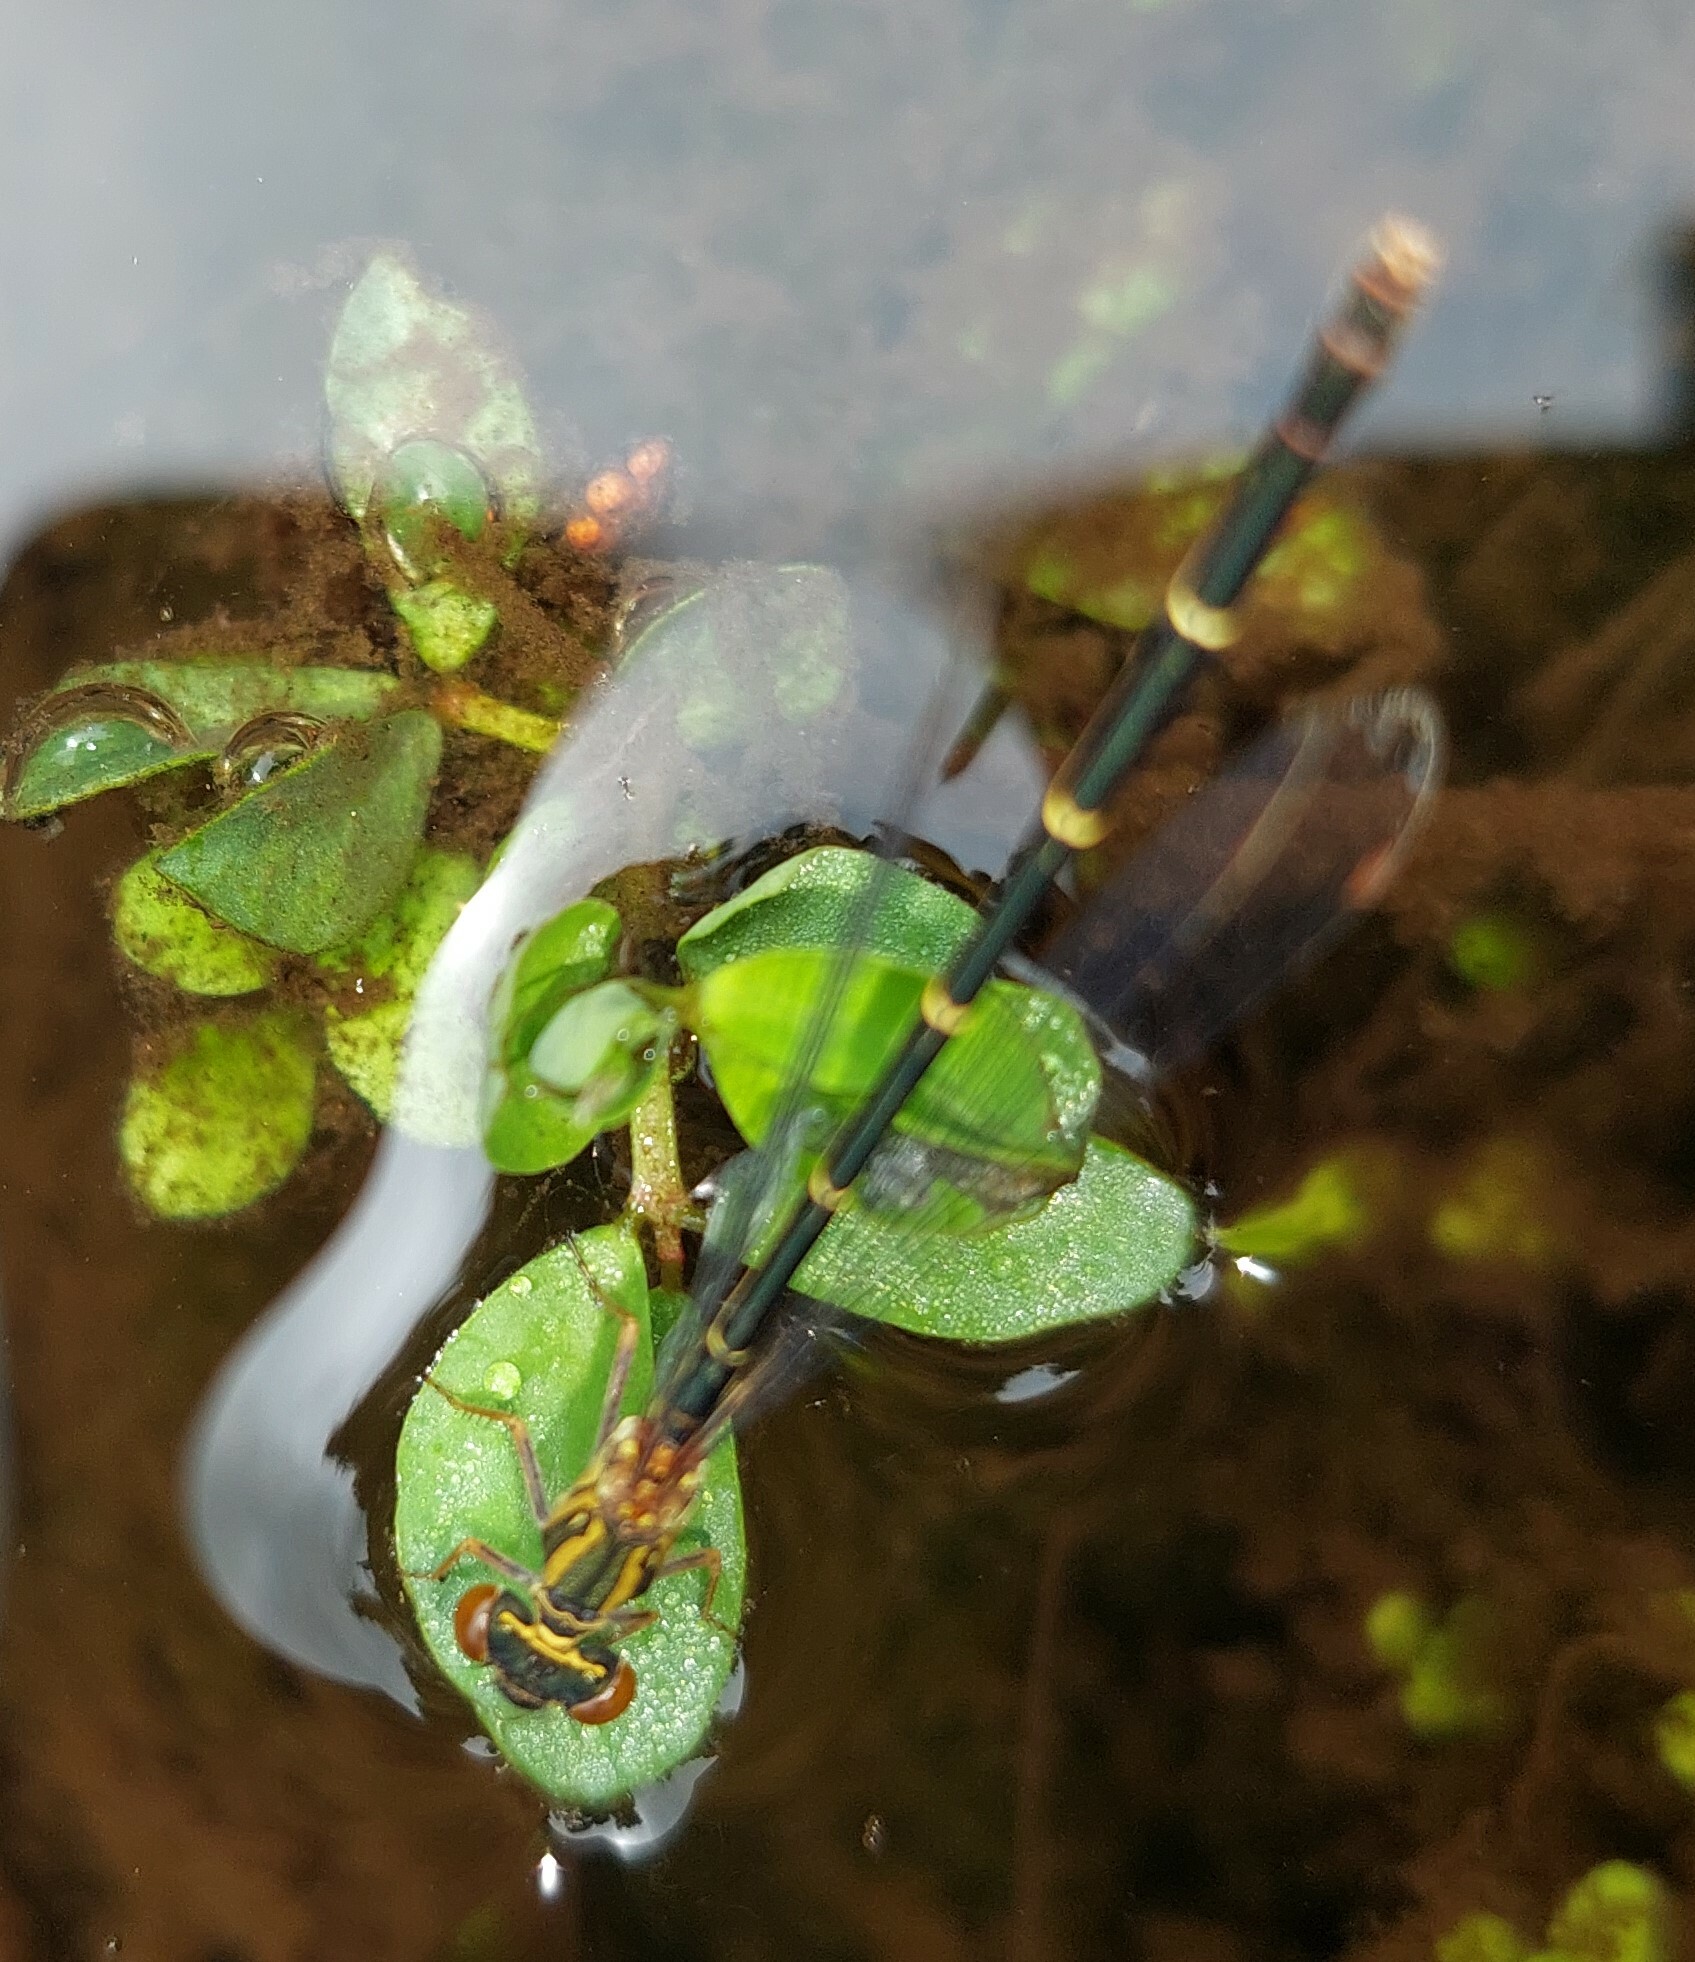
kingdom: Animalia
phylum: Arthropoda
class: Insecta
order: Odonata
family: Coenagrionidae
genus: Xanthocnemis
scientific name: Xanthocnemis zealandica
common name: Common redcoat damselfly
